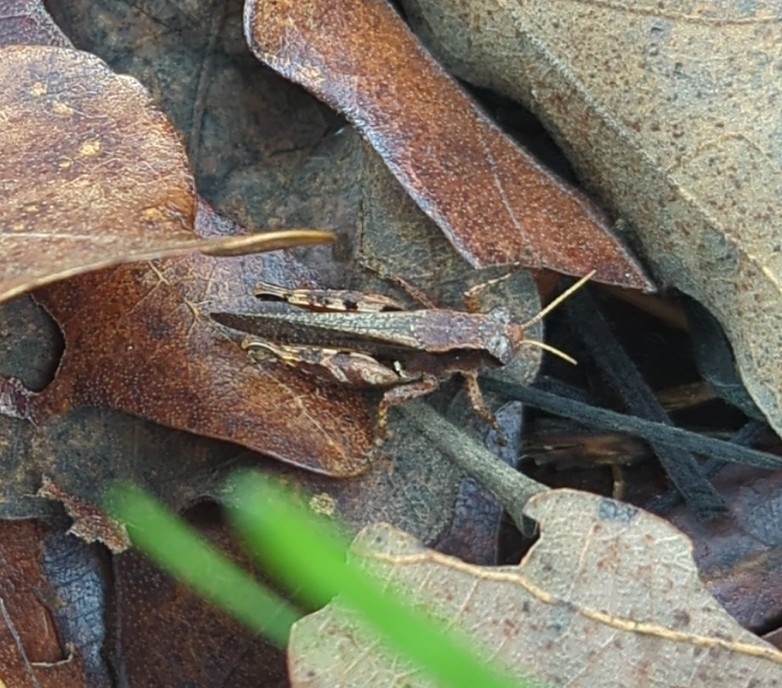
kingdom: Animalia
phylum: Arthropoda
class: Insecta
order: Orthoptera
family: Acrididae
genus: Aidemona
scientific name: Aidemona azteca
